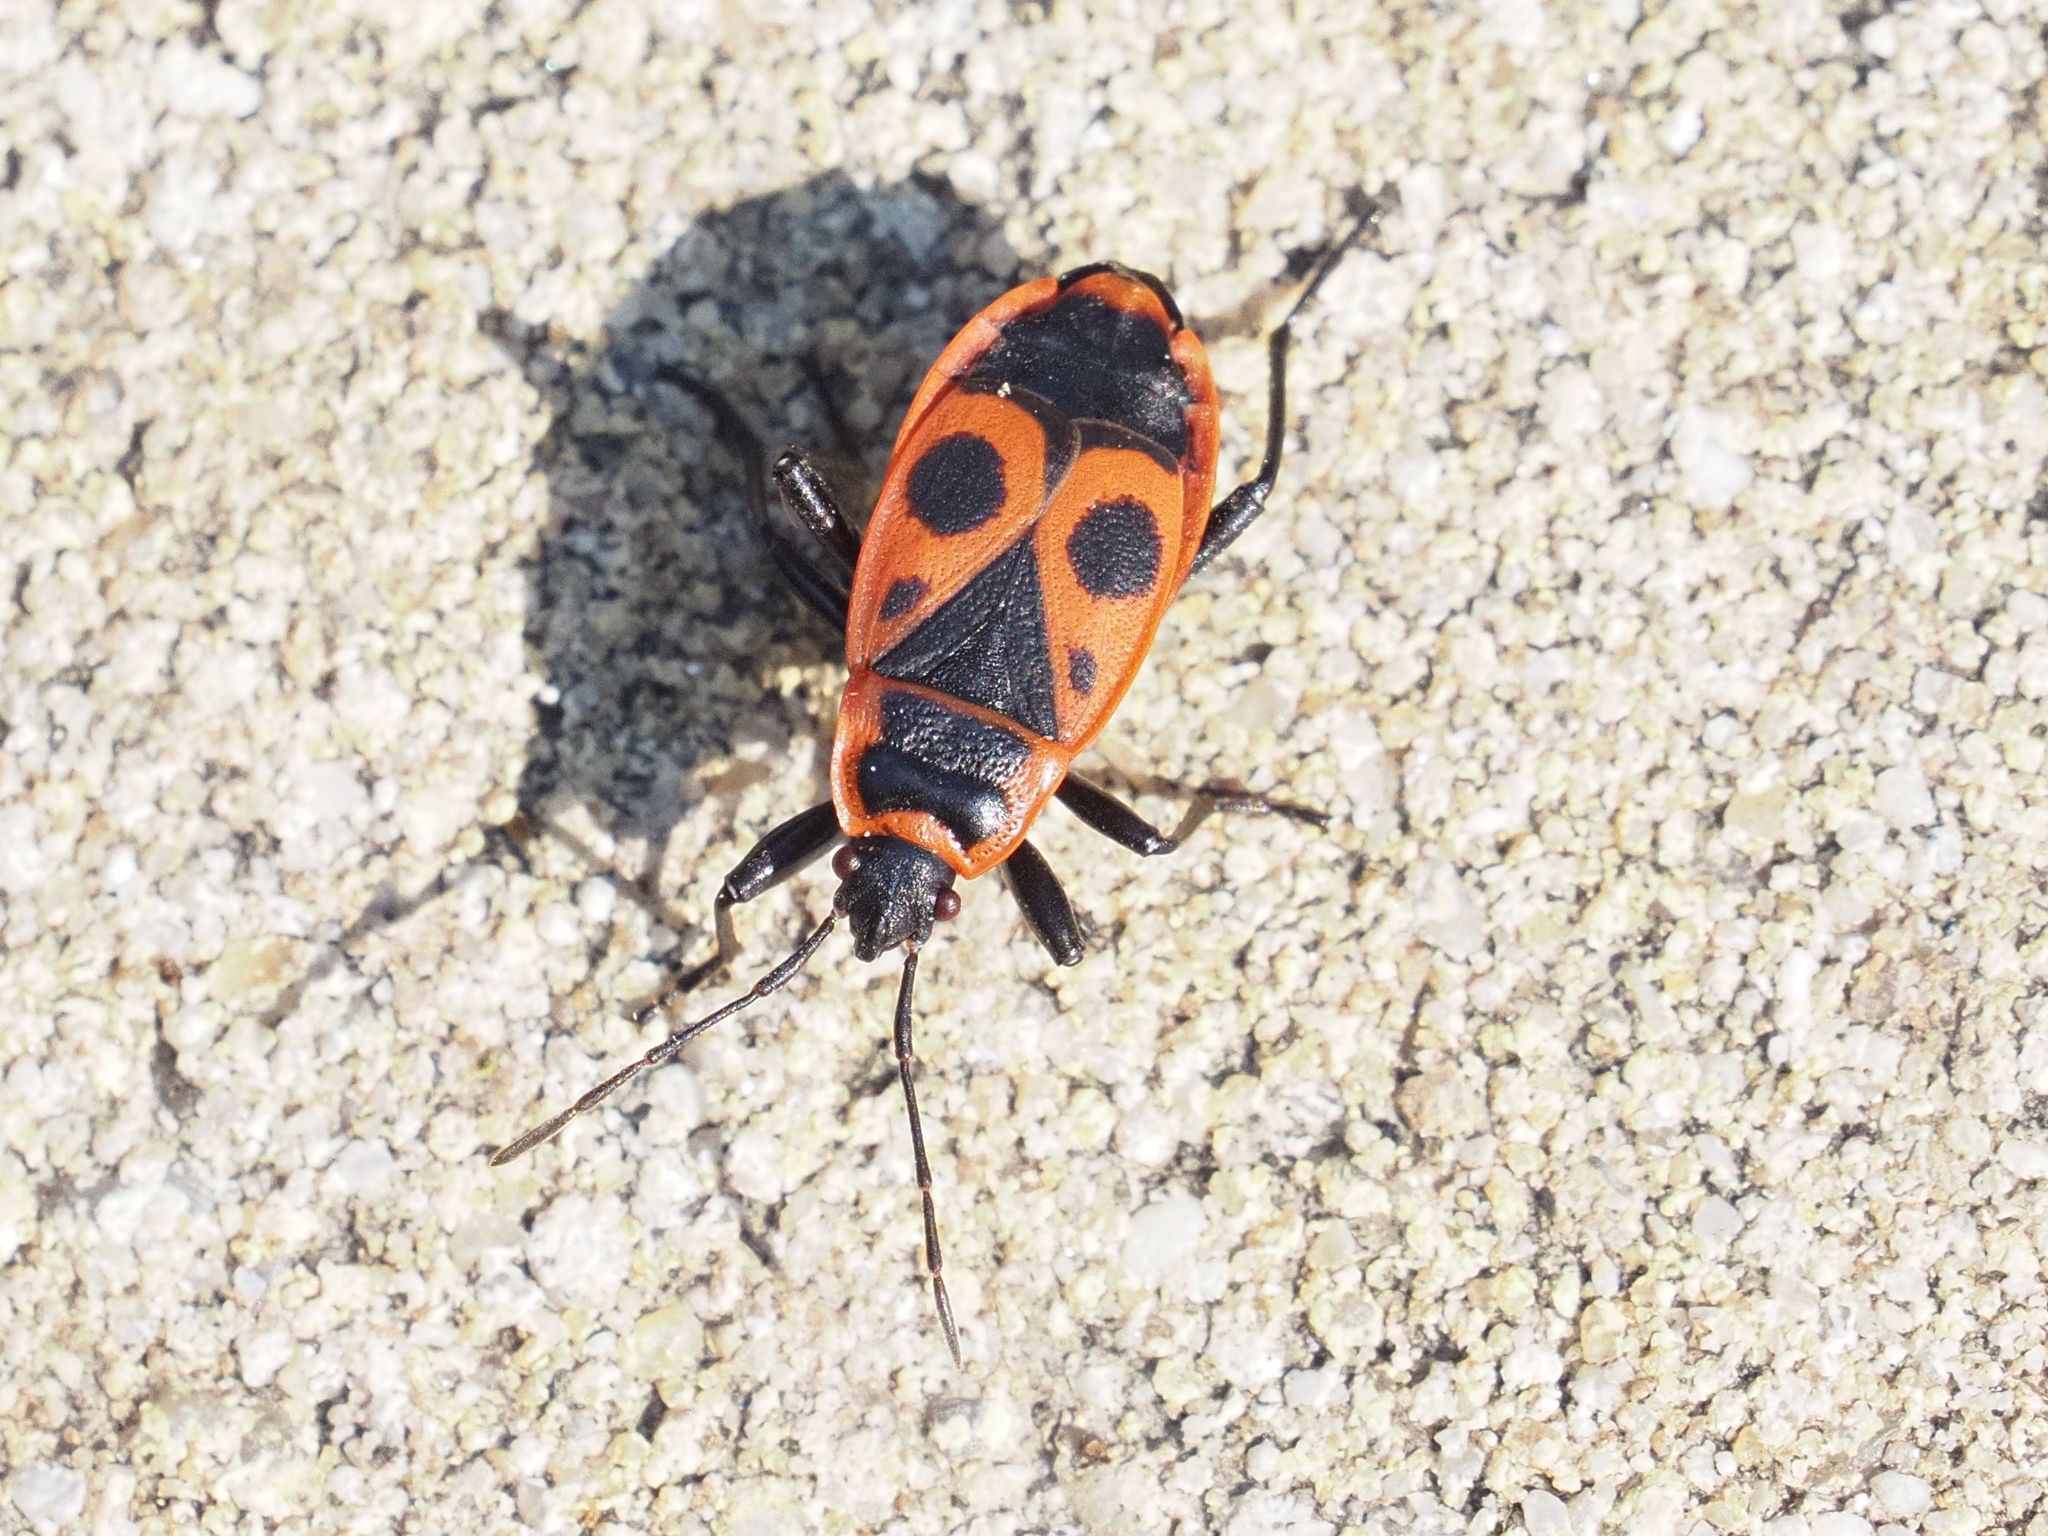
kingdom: Animalia
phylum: Arthropoda
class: Insecta
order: Hemiptera
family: Pyrrhocoridae
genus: Pyrrhocoris
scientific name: Pyrrhocoris apterus
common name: Firebug
